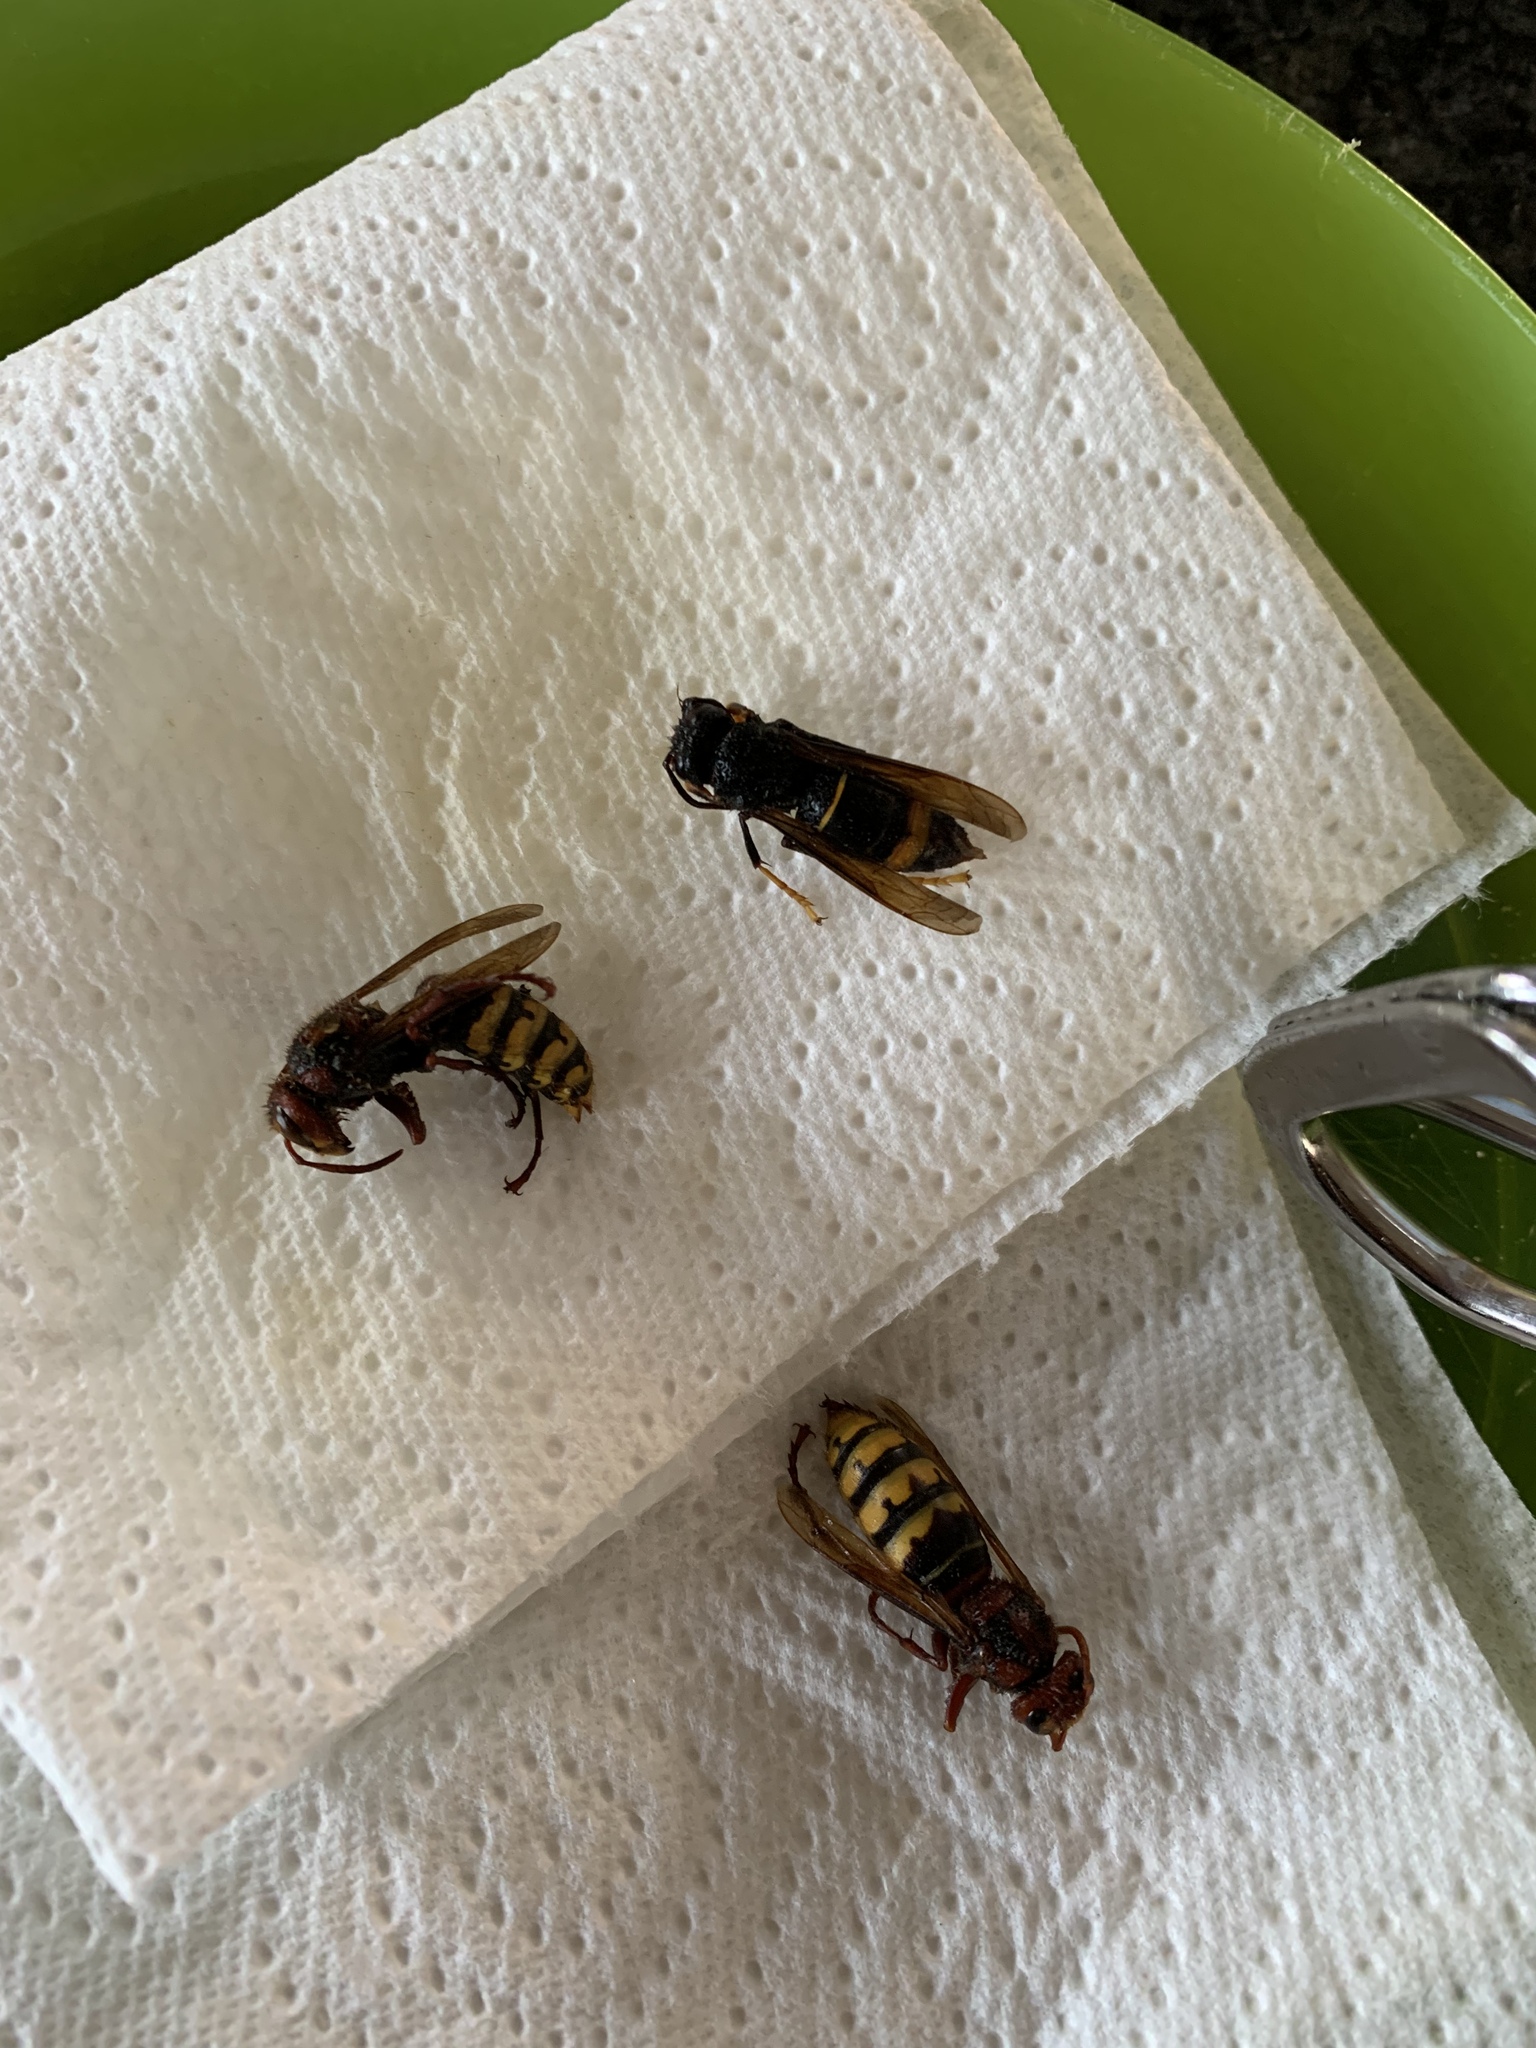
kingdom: Animalia
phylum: Arthropoda
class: Insecta
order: Hymenoptera
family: Vespidae
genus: Vespa
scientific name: Vespa crabro
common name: Hornet
